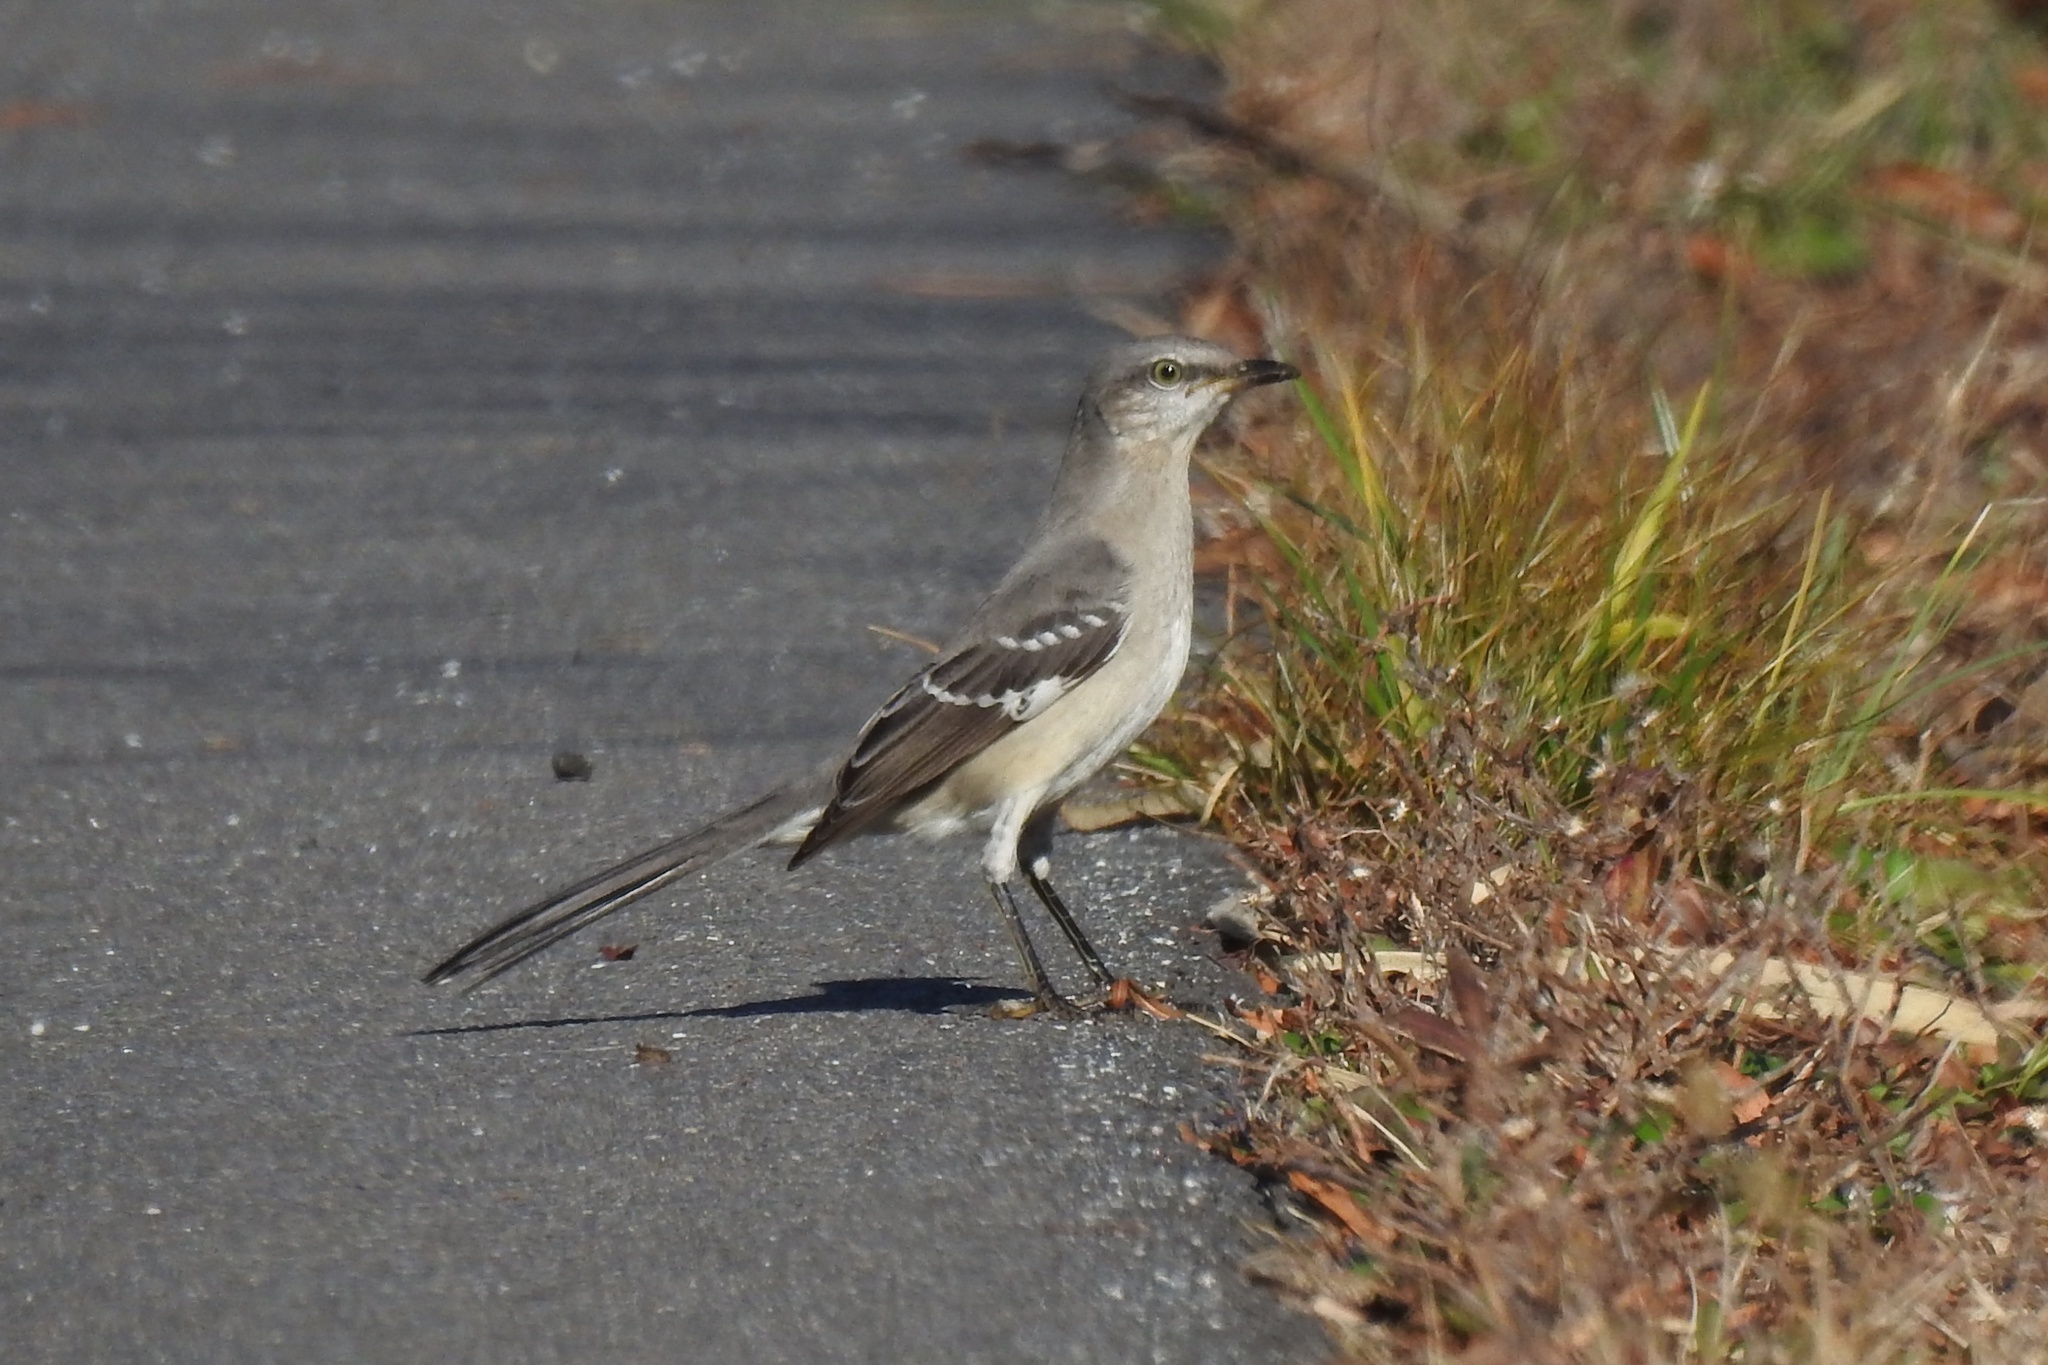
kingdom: Animalia
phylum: Chordata
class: Aves
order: Passeriformes
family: Mimidae
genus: Mimus
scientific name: Mimus polyglottos
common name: Northern mockingbird
